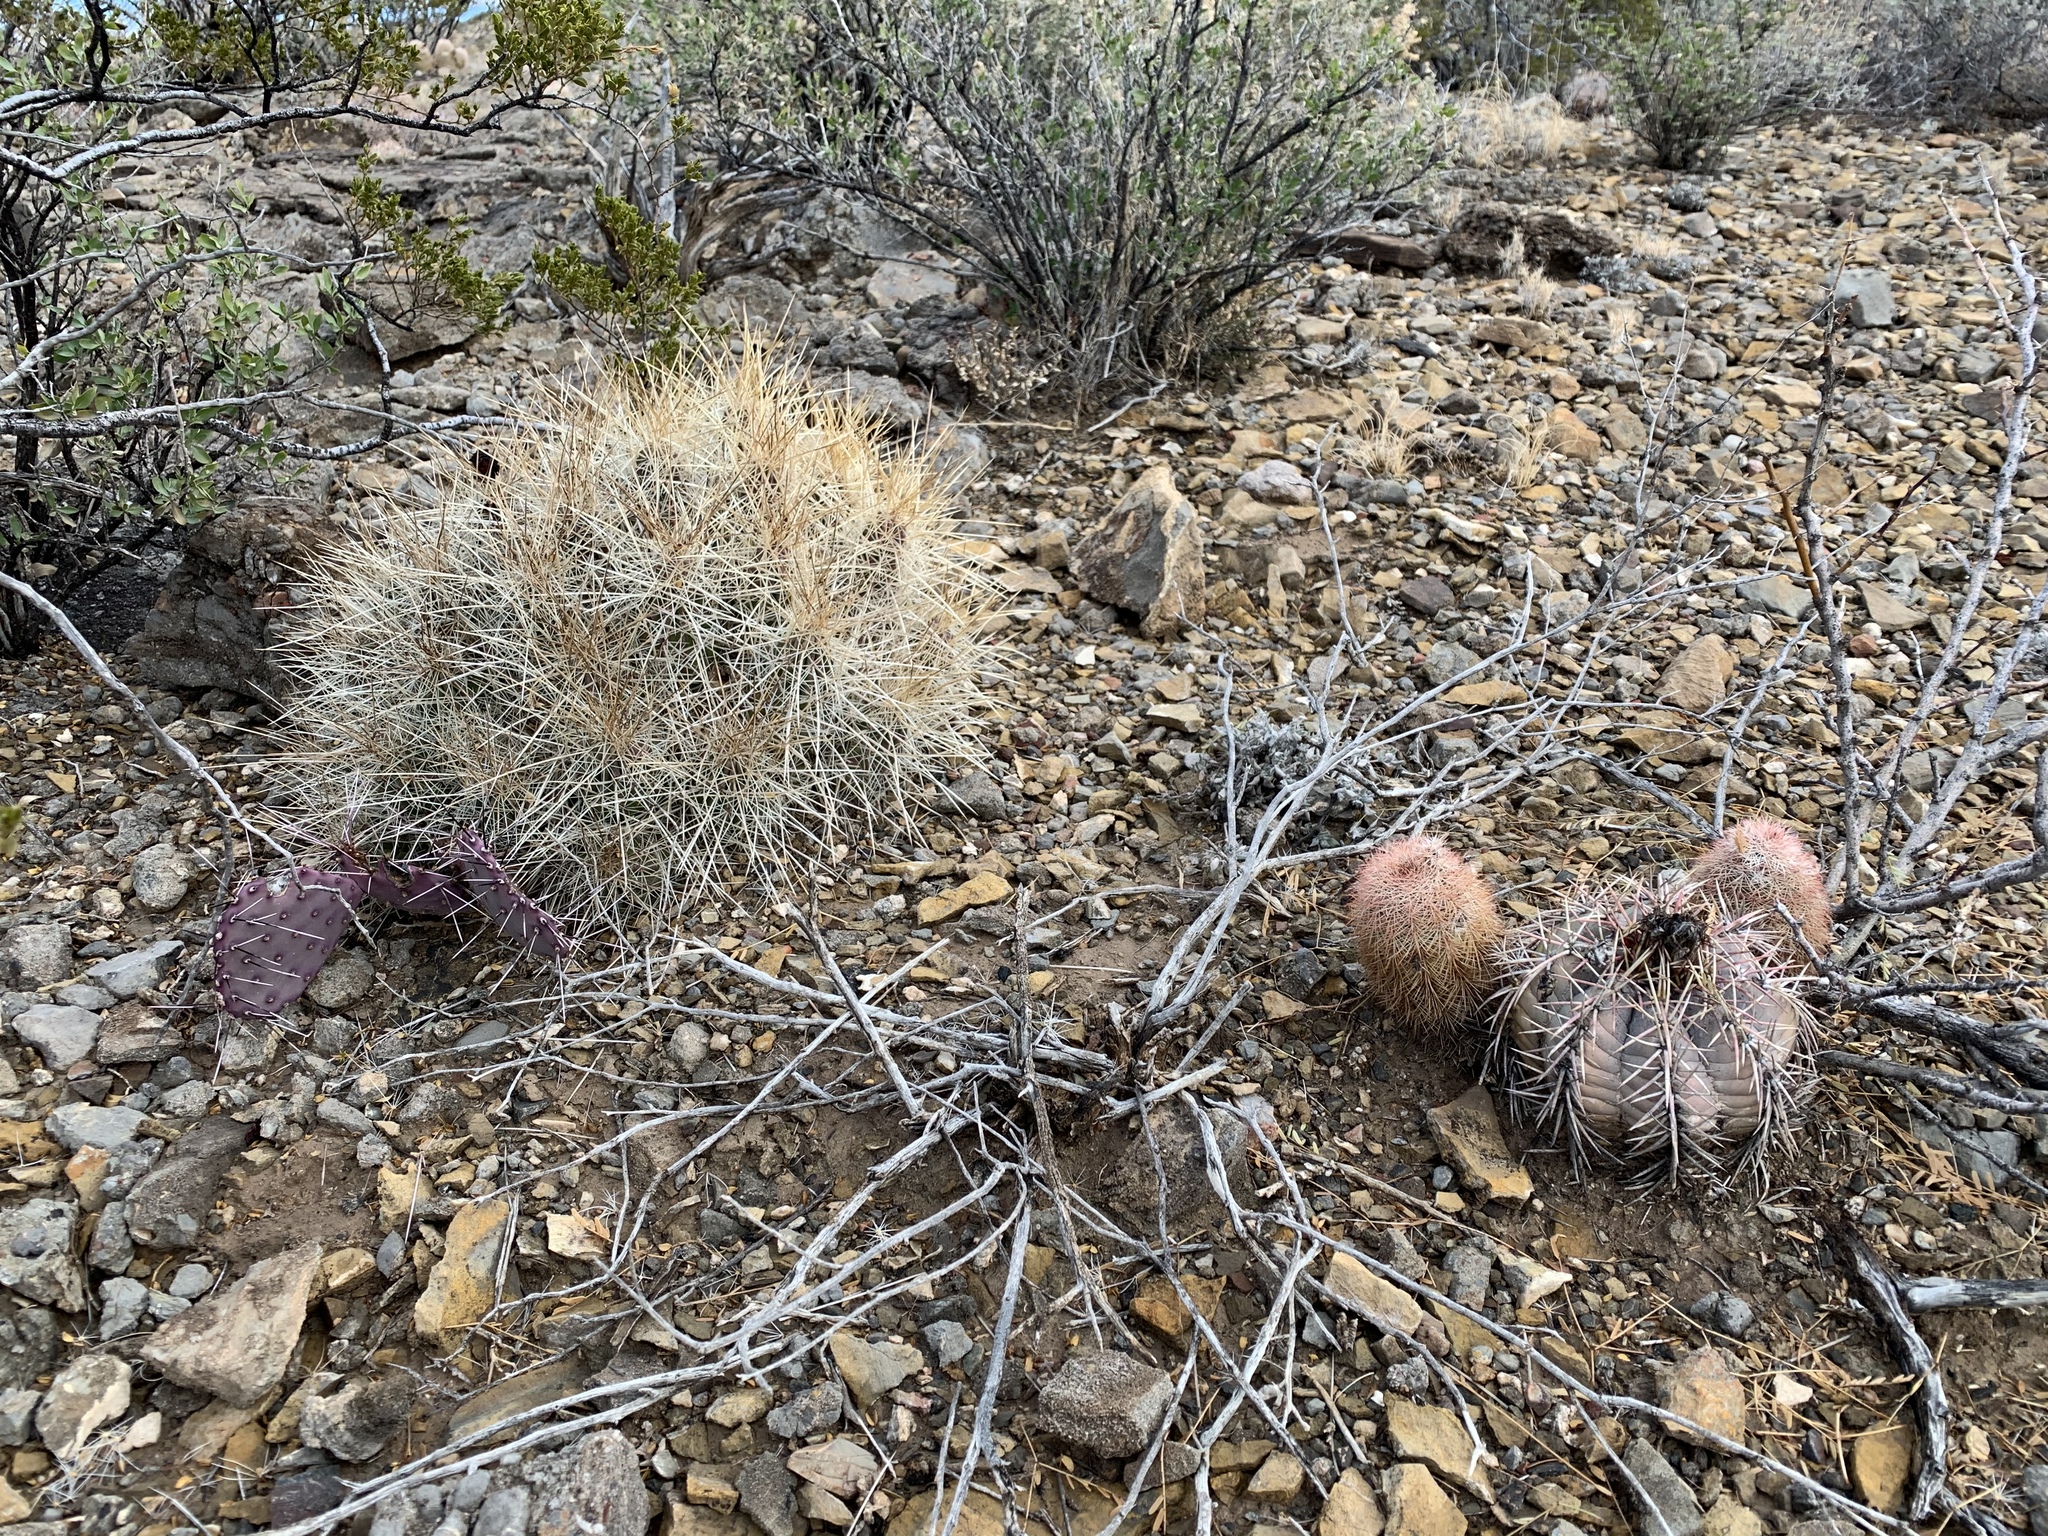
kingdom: Plantae
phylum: Tracheophyta
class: Magnoliopsida
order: Caryophyllales
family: Cactaceae
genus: Echinocereus
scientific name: Echinocereus dasyacanthus
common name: Spiny hedgehog cactus
